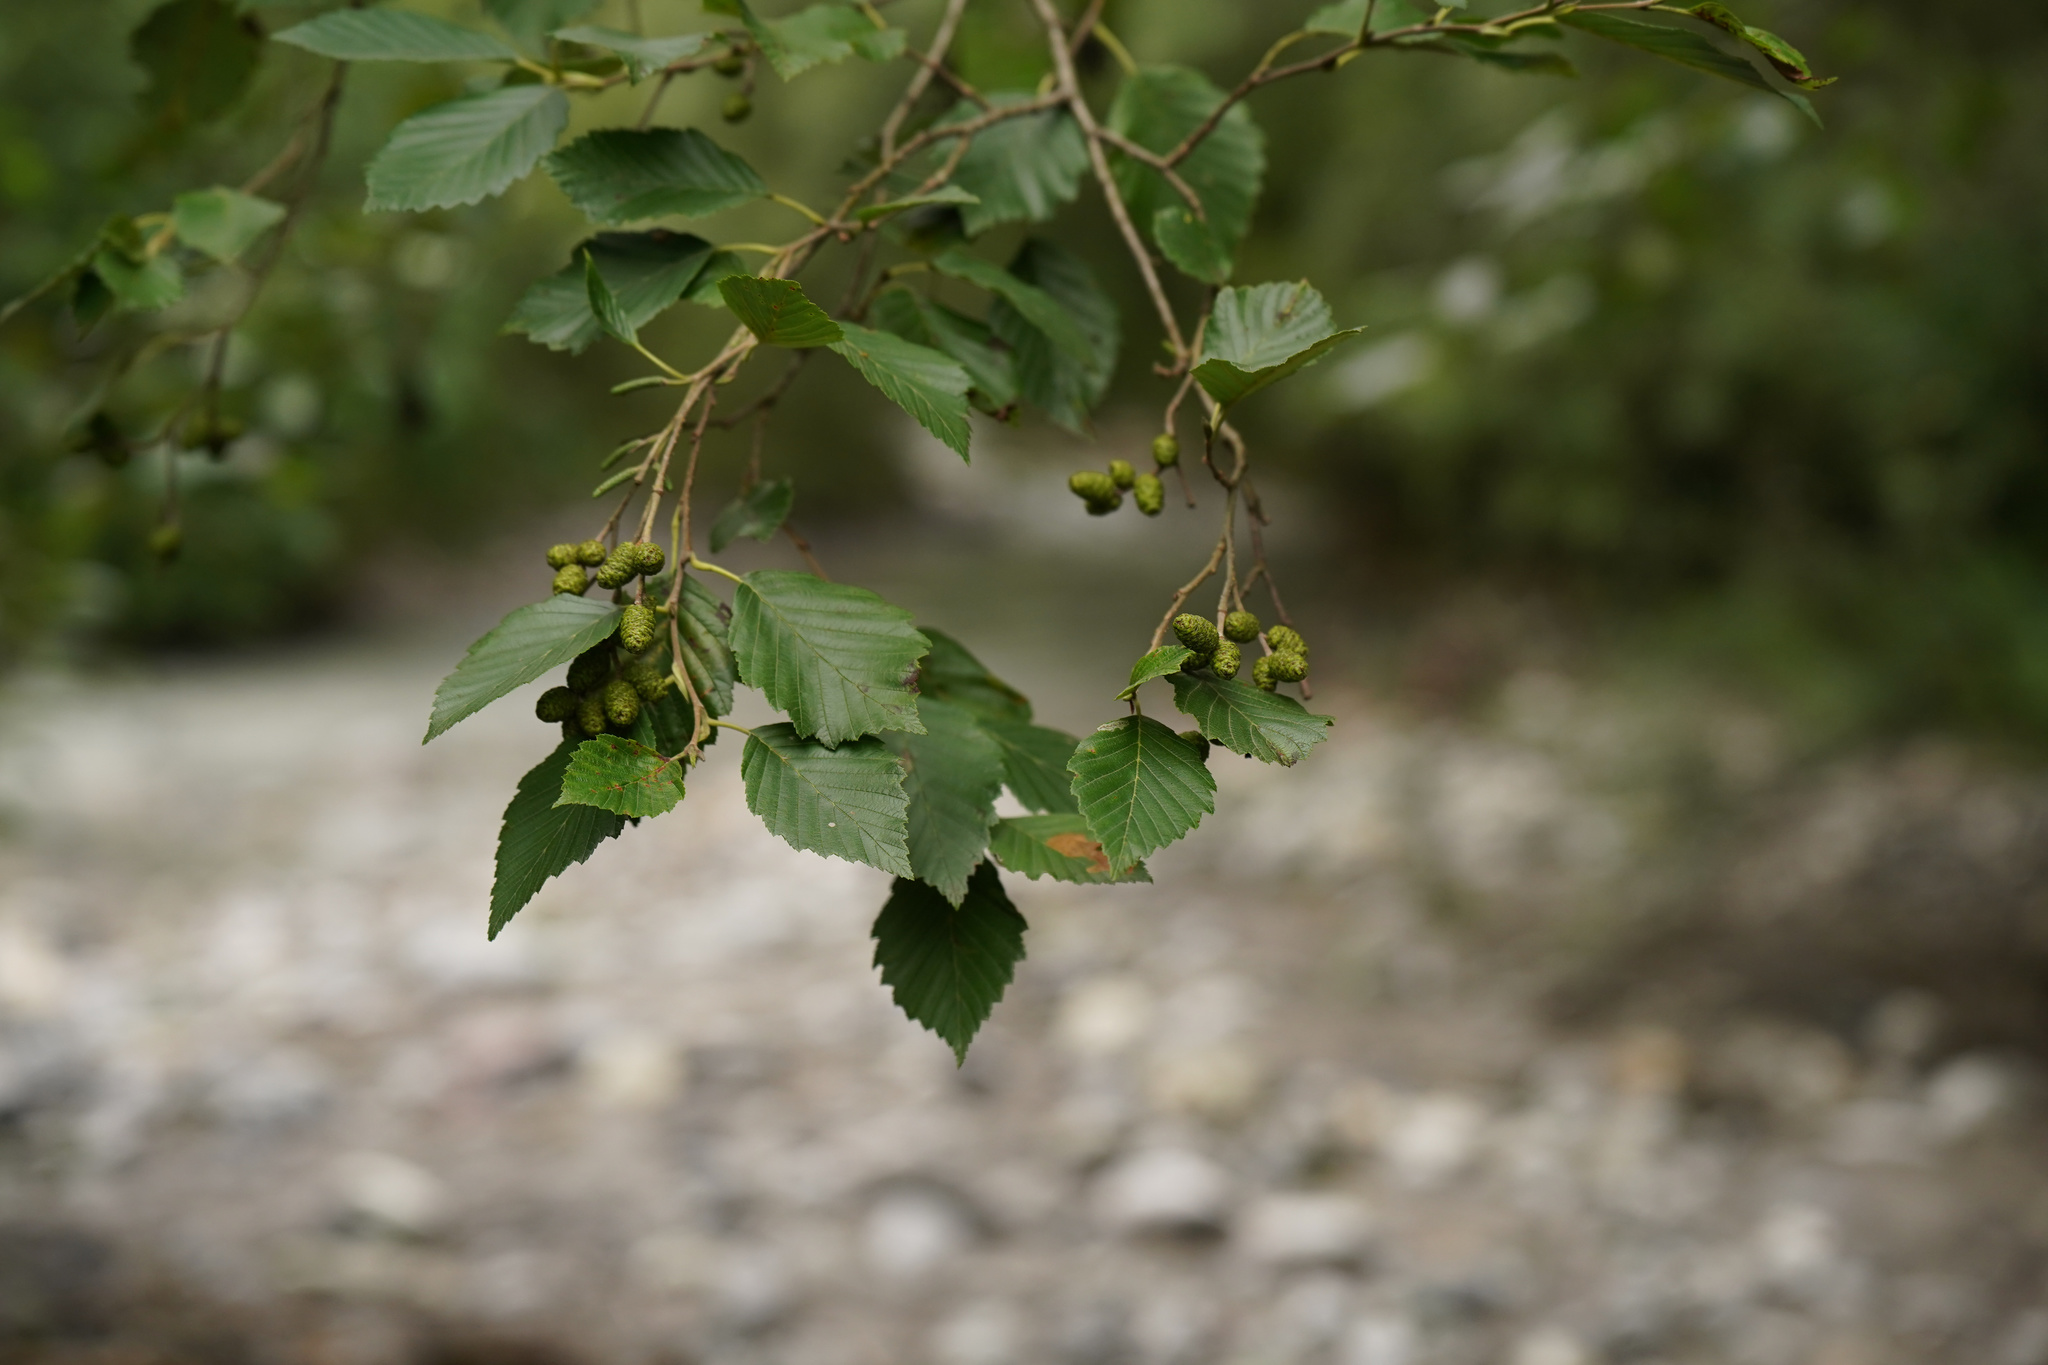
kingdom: Plantae
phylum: Tracheophyta
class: Magnoliopsida
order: Fagales
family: Betulaceae
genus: Alnus
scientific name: Alnus incana
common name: Grey alder
